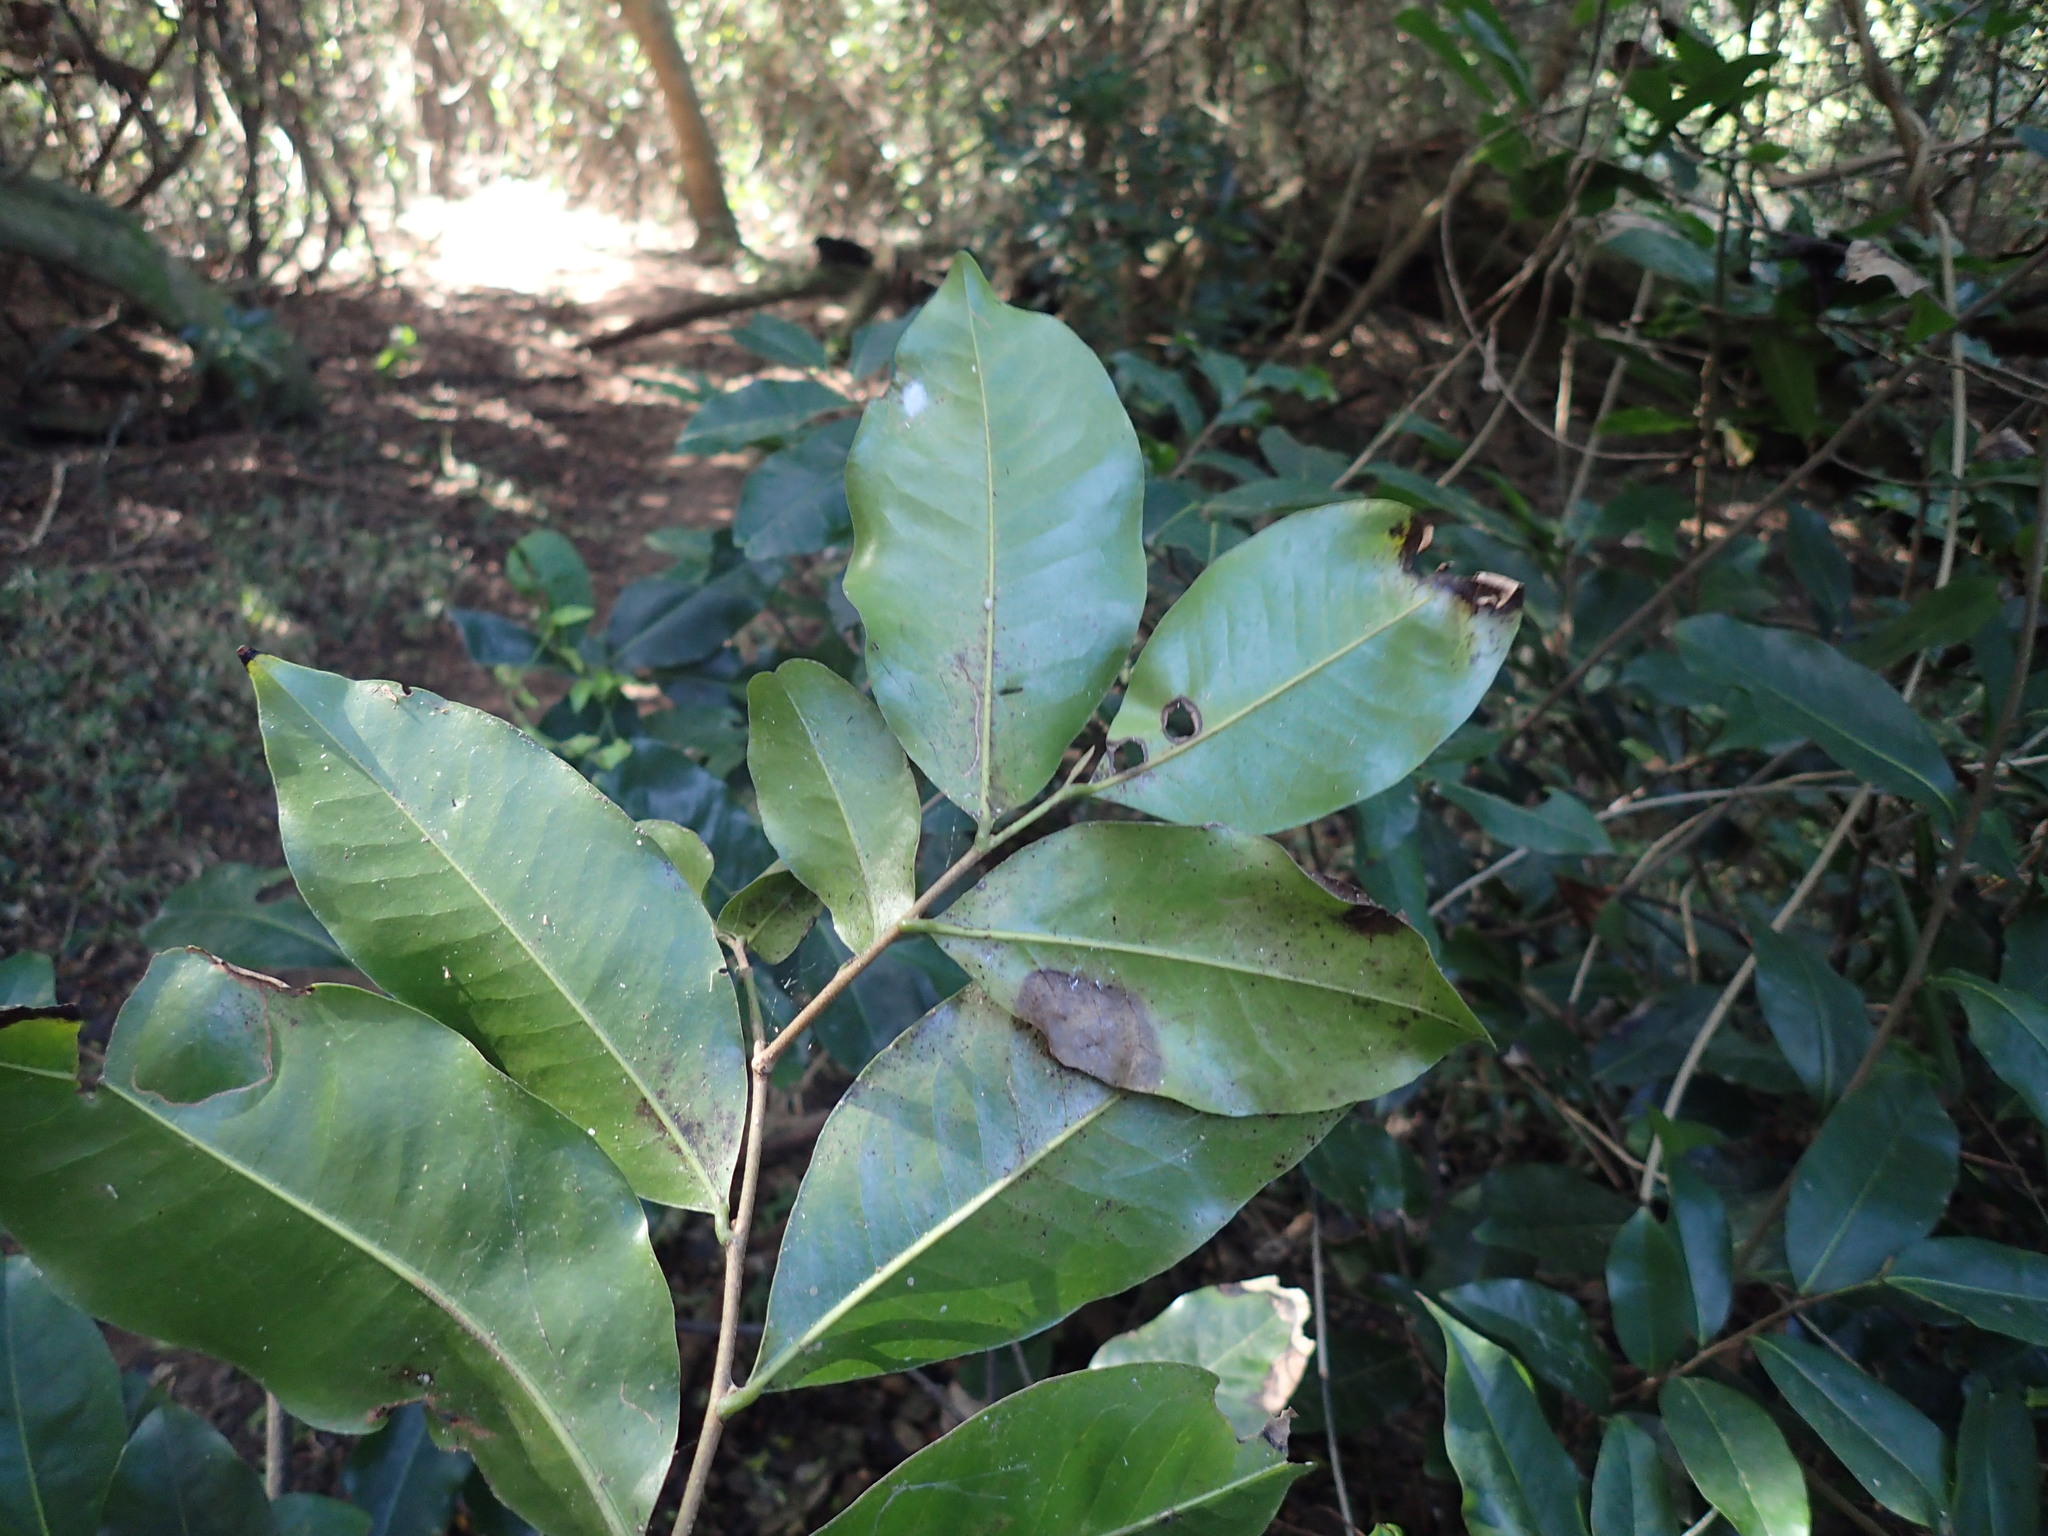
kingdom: Plantae
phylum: Tracheophyta
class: Magnoliopsida
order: Magnoliales
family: Annonaceae
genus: Uvaria
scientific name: Uvaria caffra
